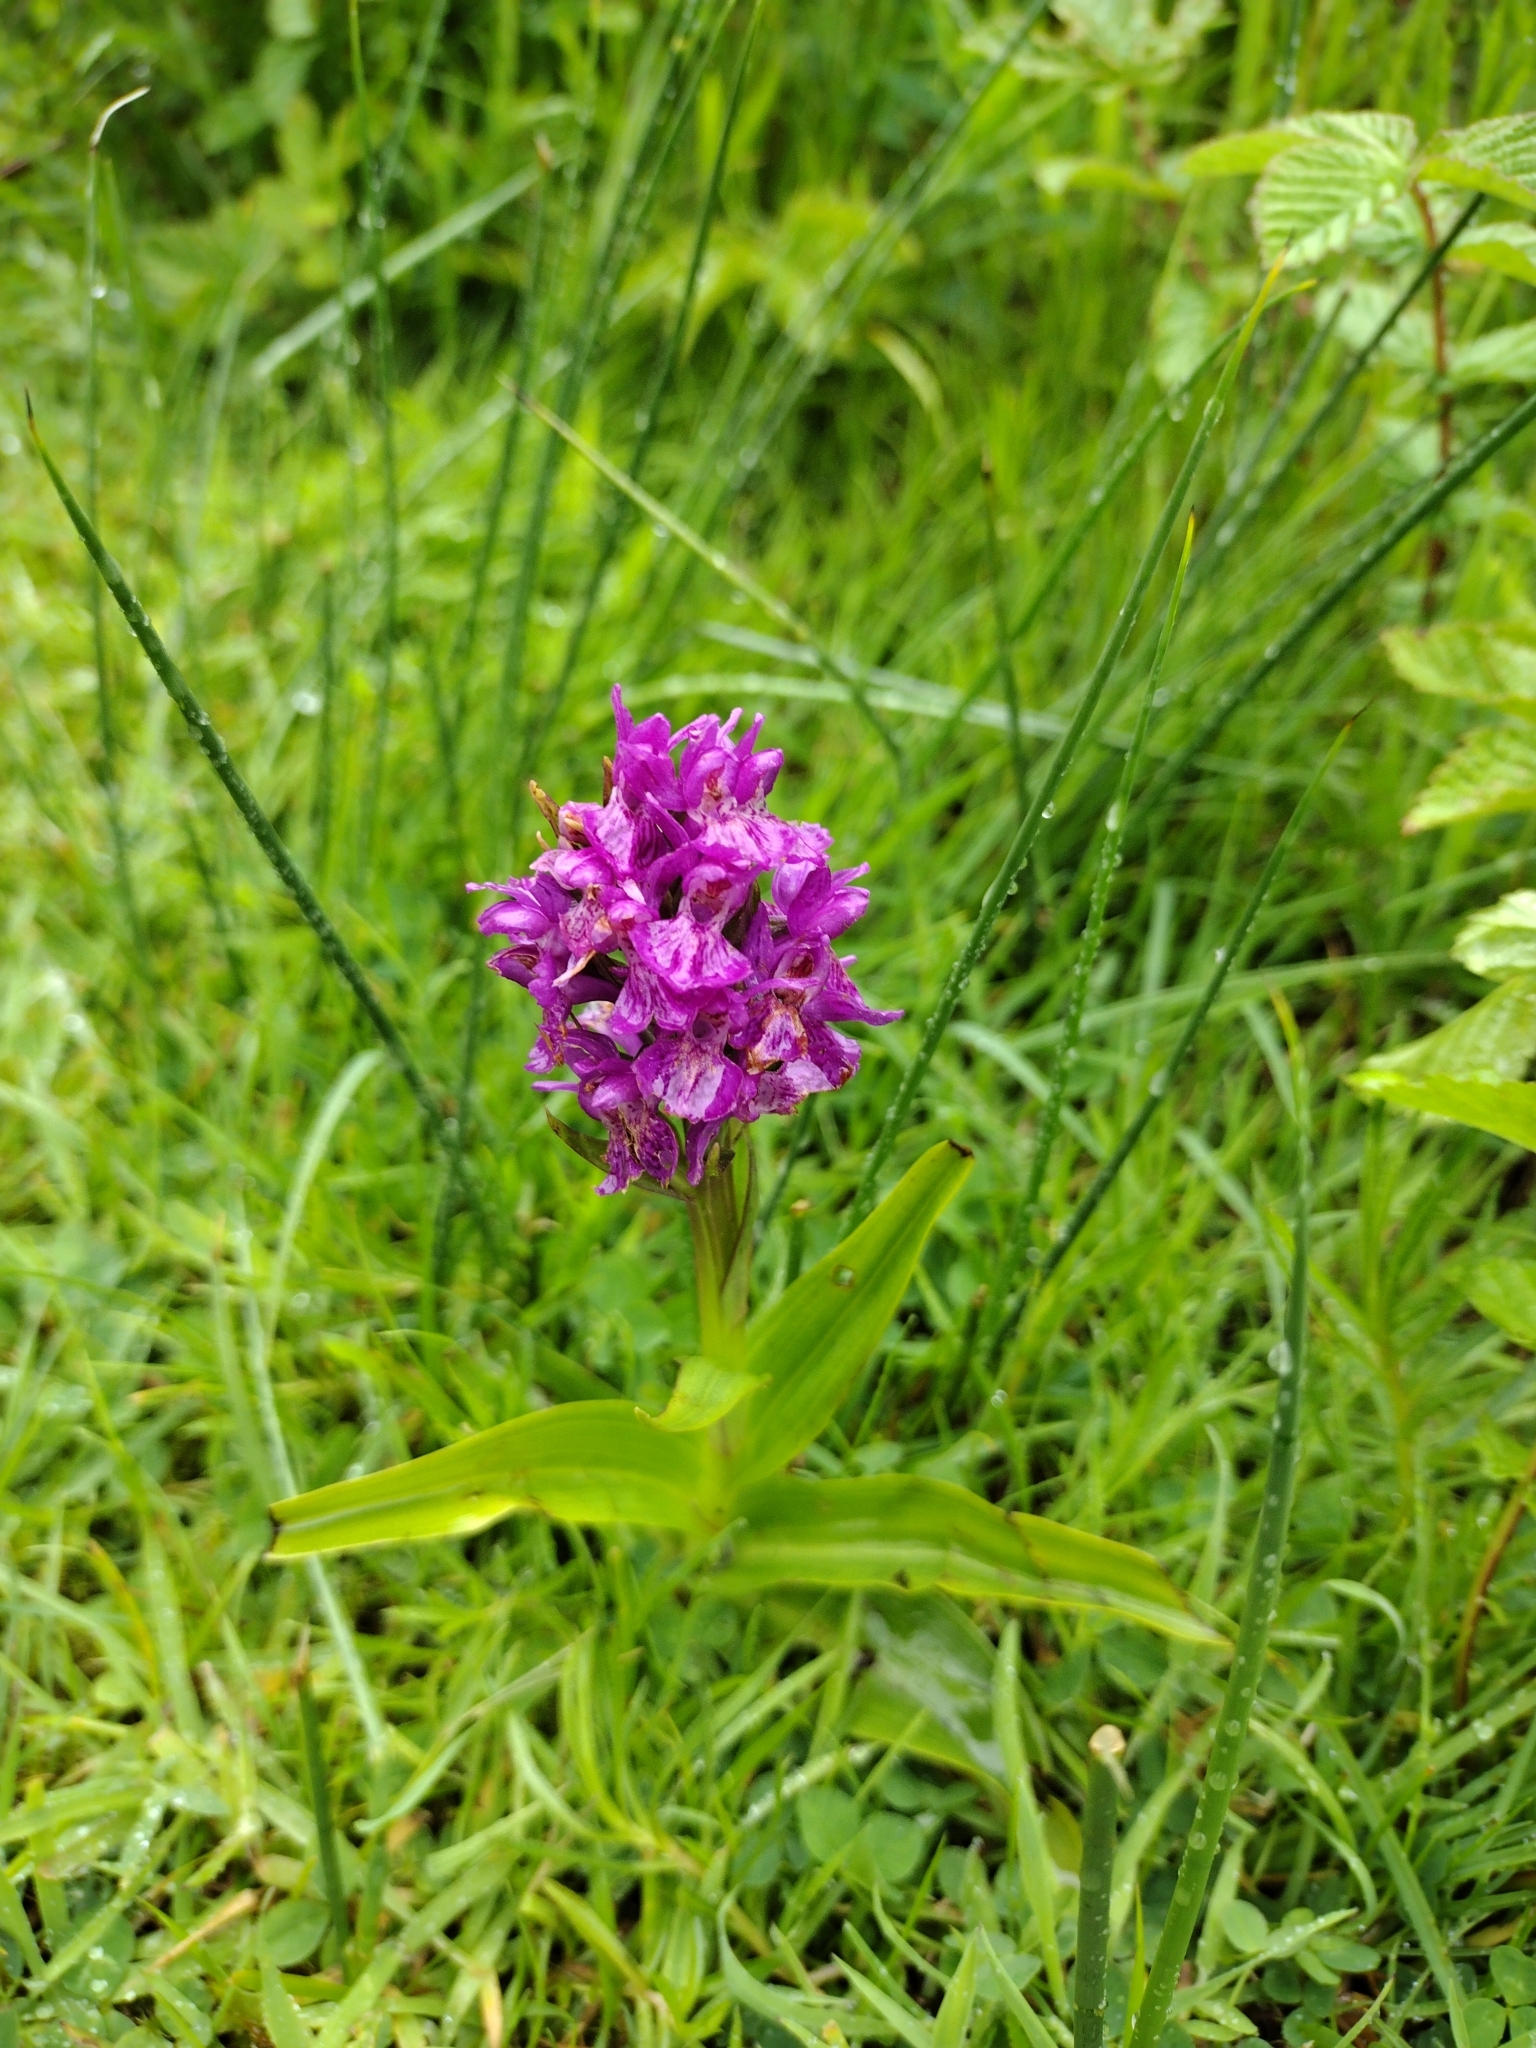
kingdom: Plantae
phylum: Tracheophyta
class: Liliopsida
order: Asparagales
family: Orchidaceae
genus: Dactylorhiza
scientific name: Dactylorhiza majalis
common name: Marsh orchid
